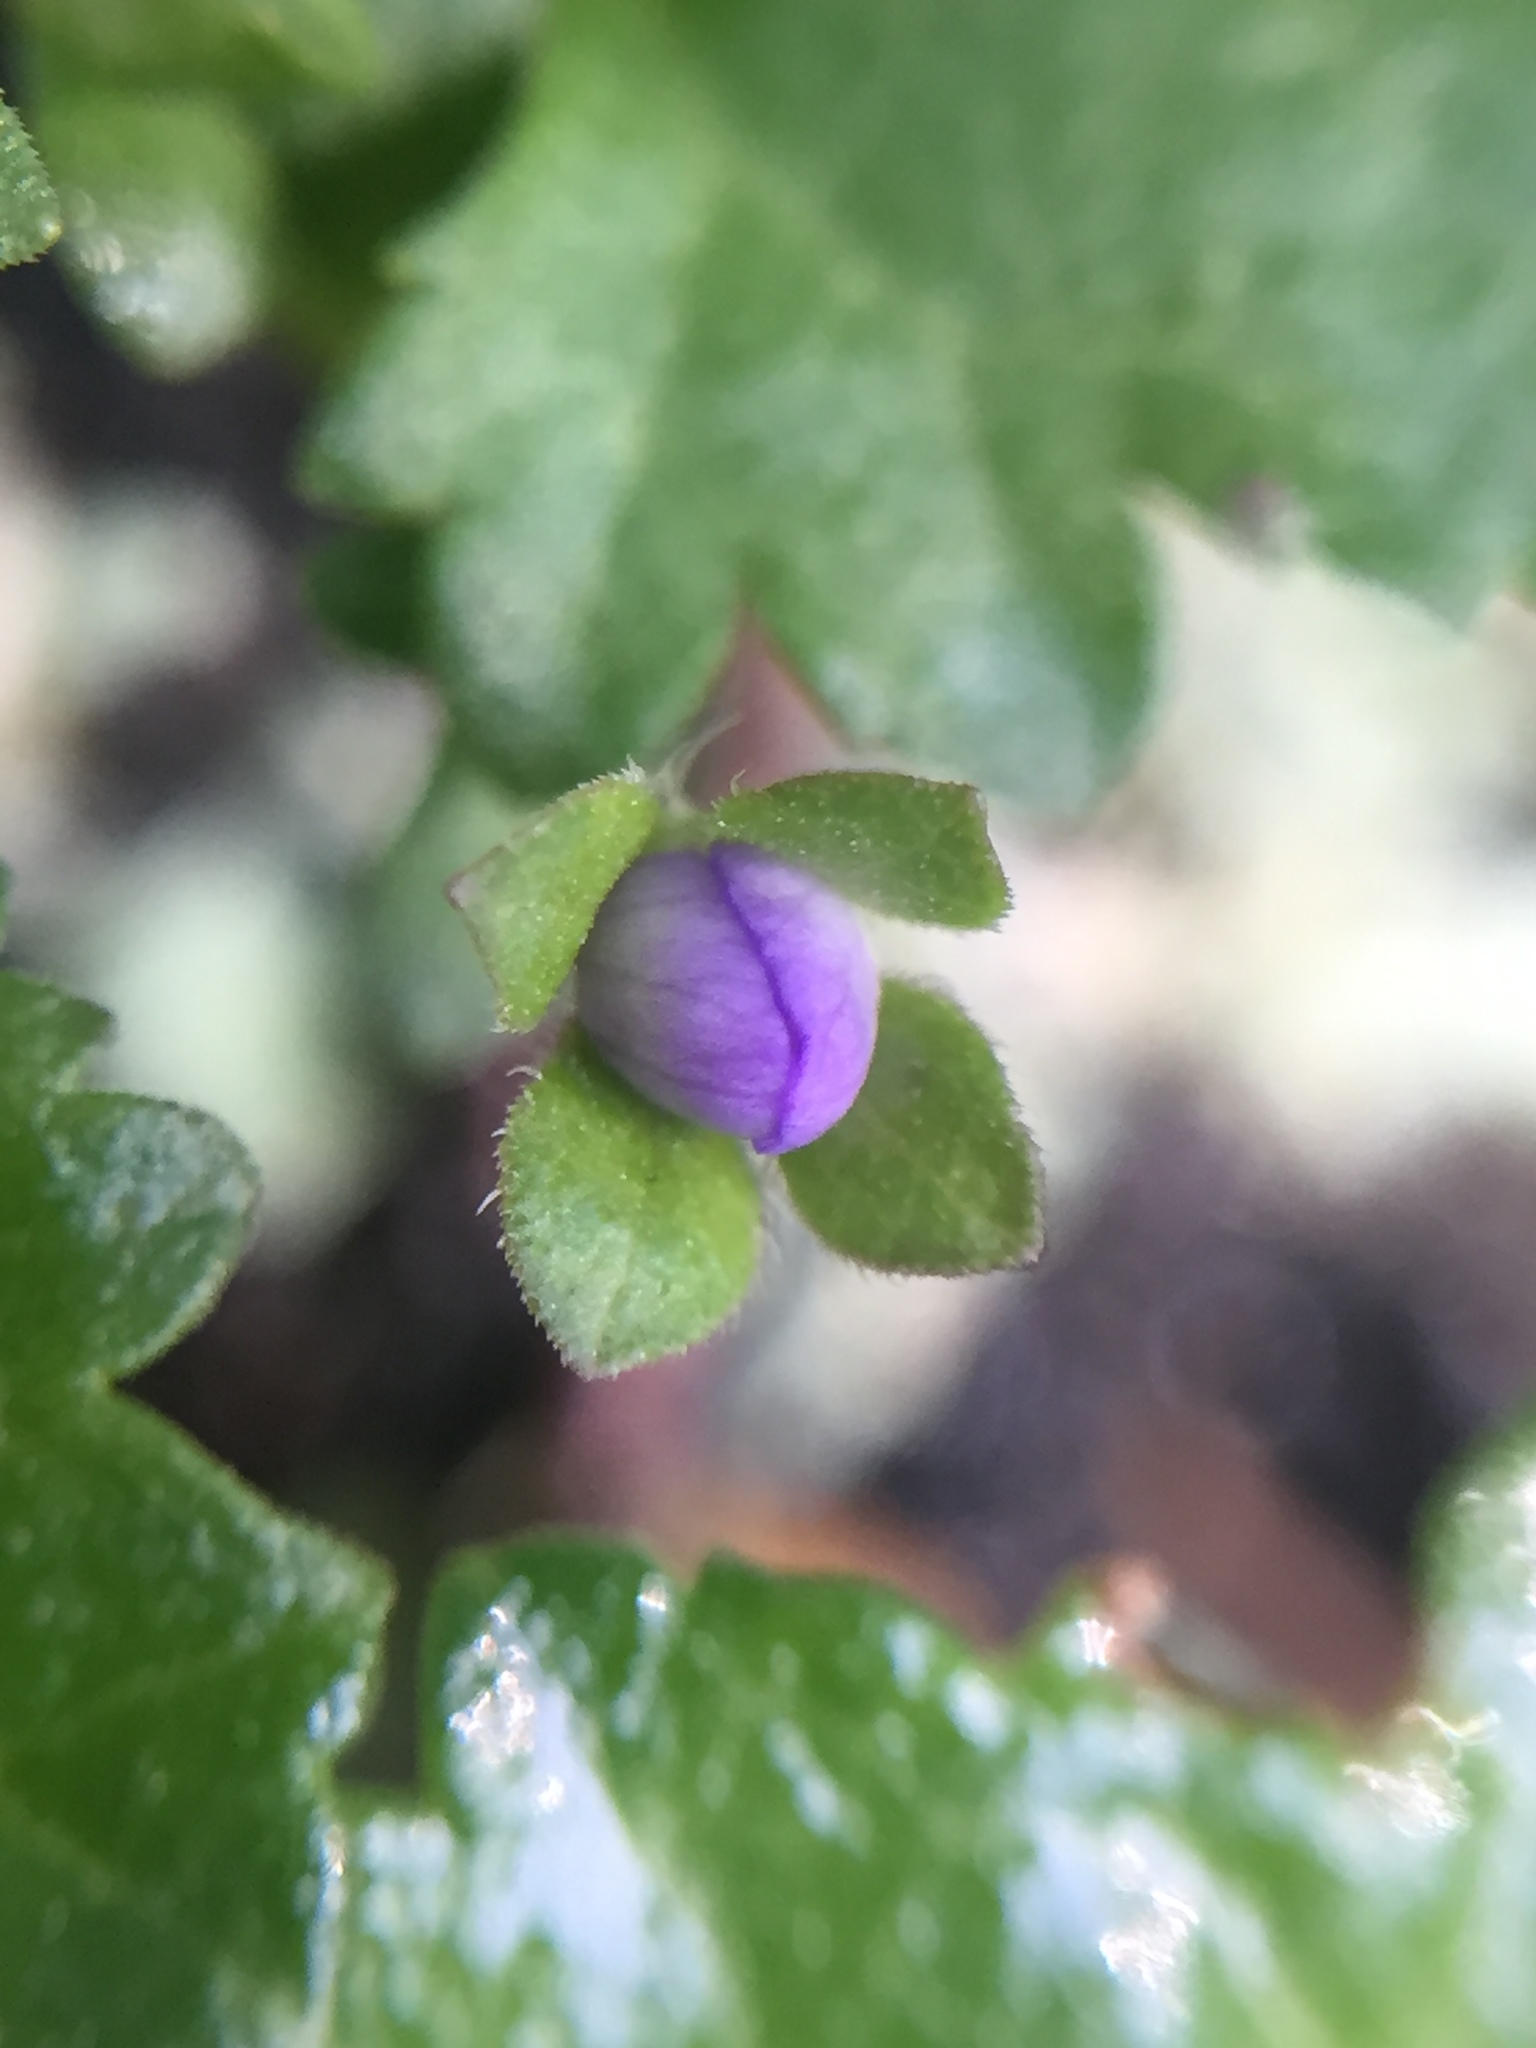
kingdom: Plantae
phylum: Tracheophyta
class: Magnoliopsida
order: Lamiales
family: Plantaginaceae
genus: Veronica
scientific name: Veronica plebeia
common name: Speedwell
